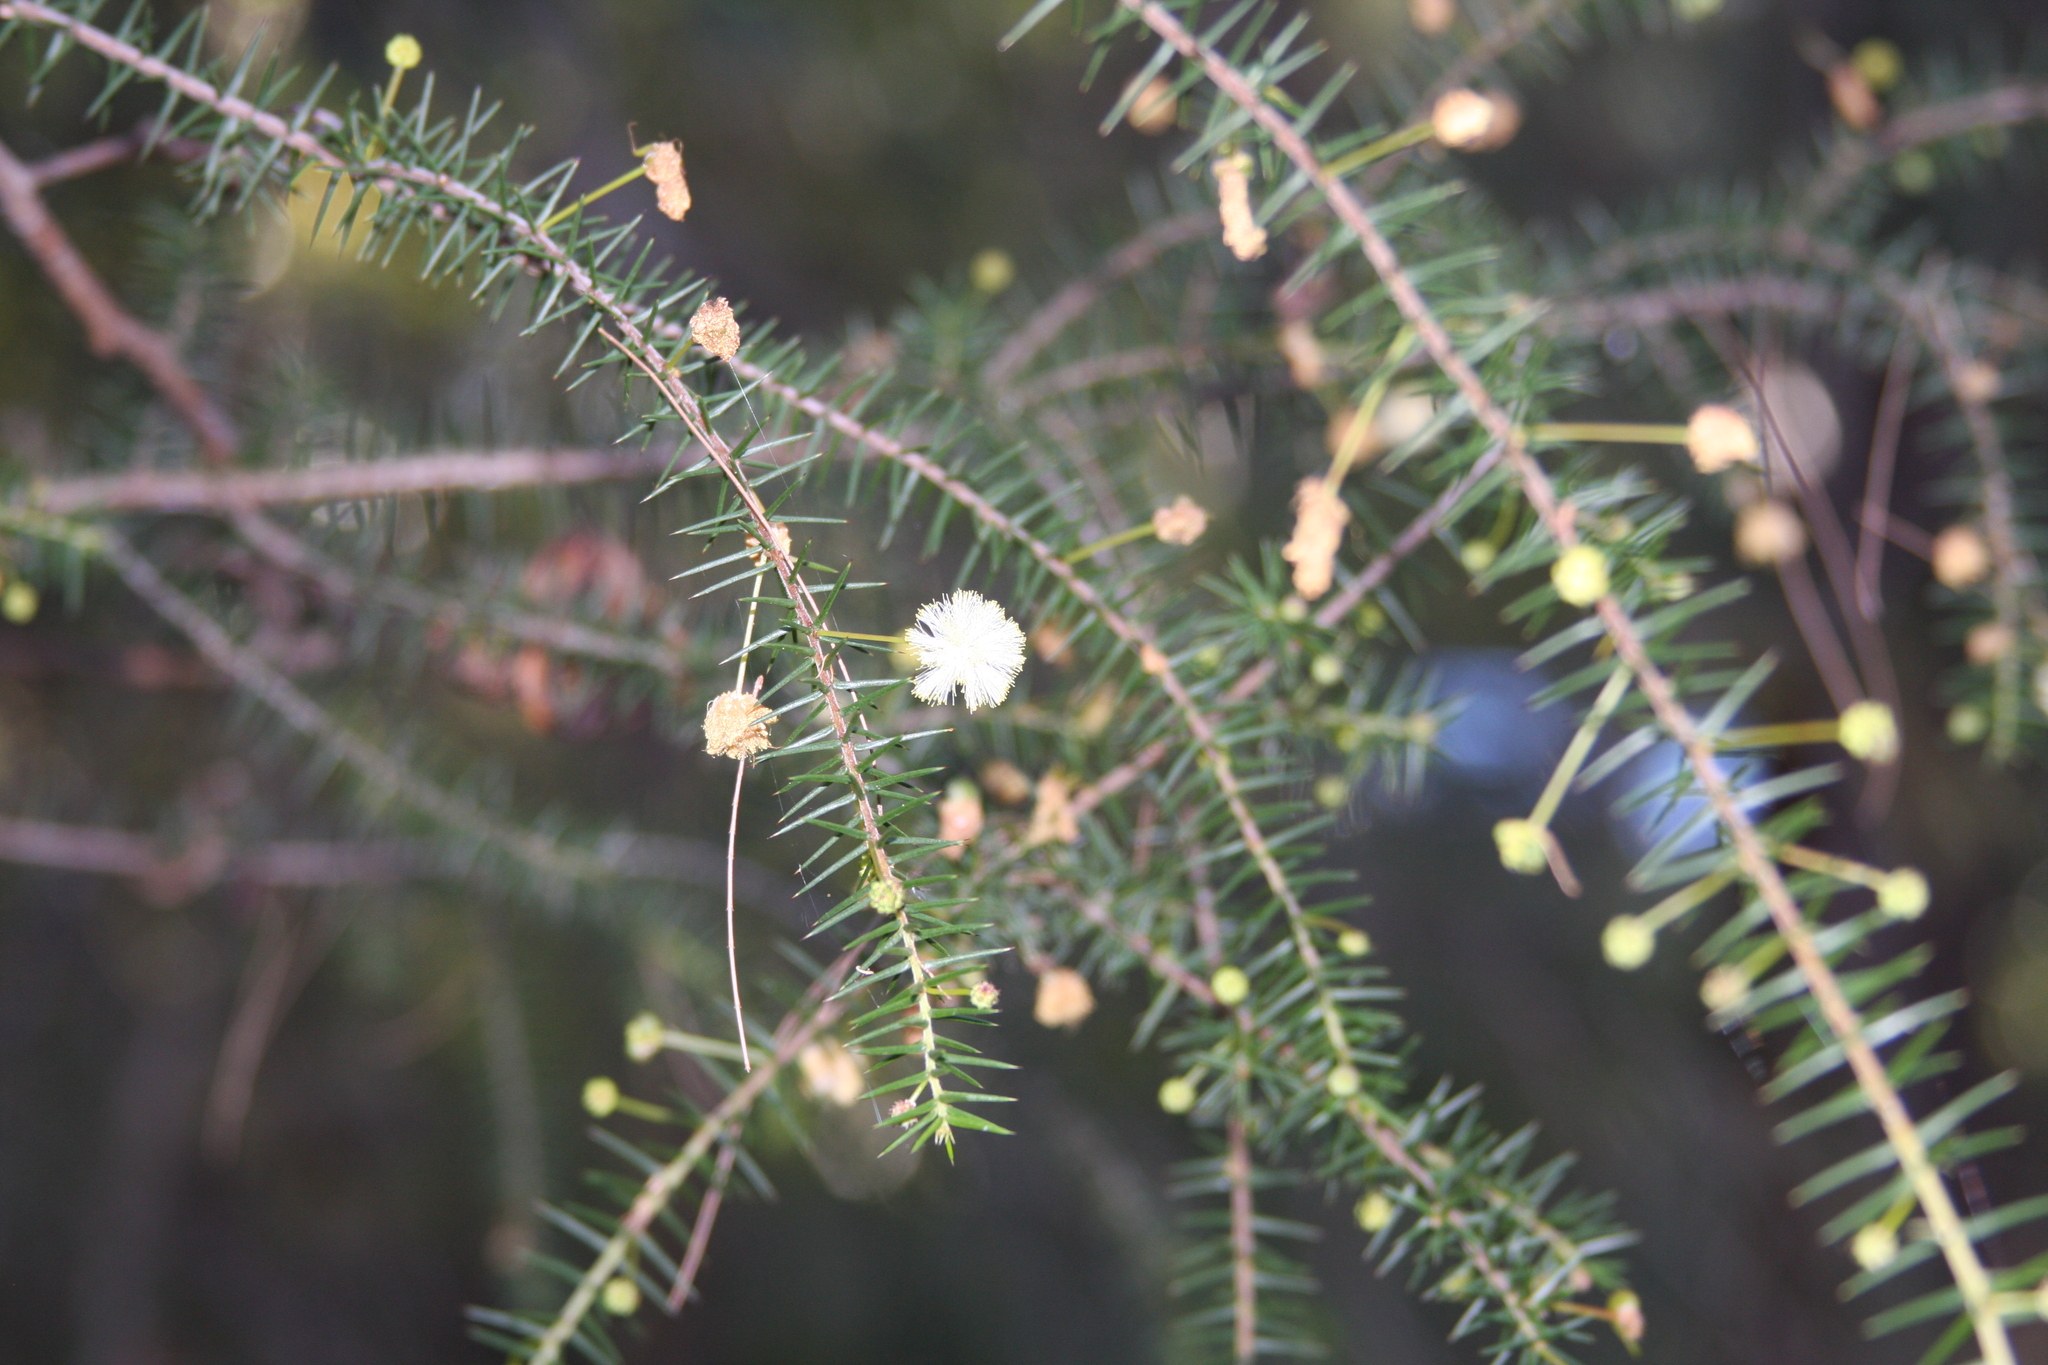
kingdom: Plantae
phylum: Tracheophyta
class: Magnoliopsida
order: Fabales
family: Fabaceae
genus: Acacia
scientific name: Acacia ulicifolia
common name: Juniper wattle
